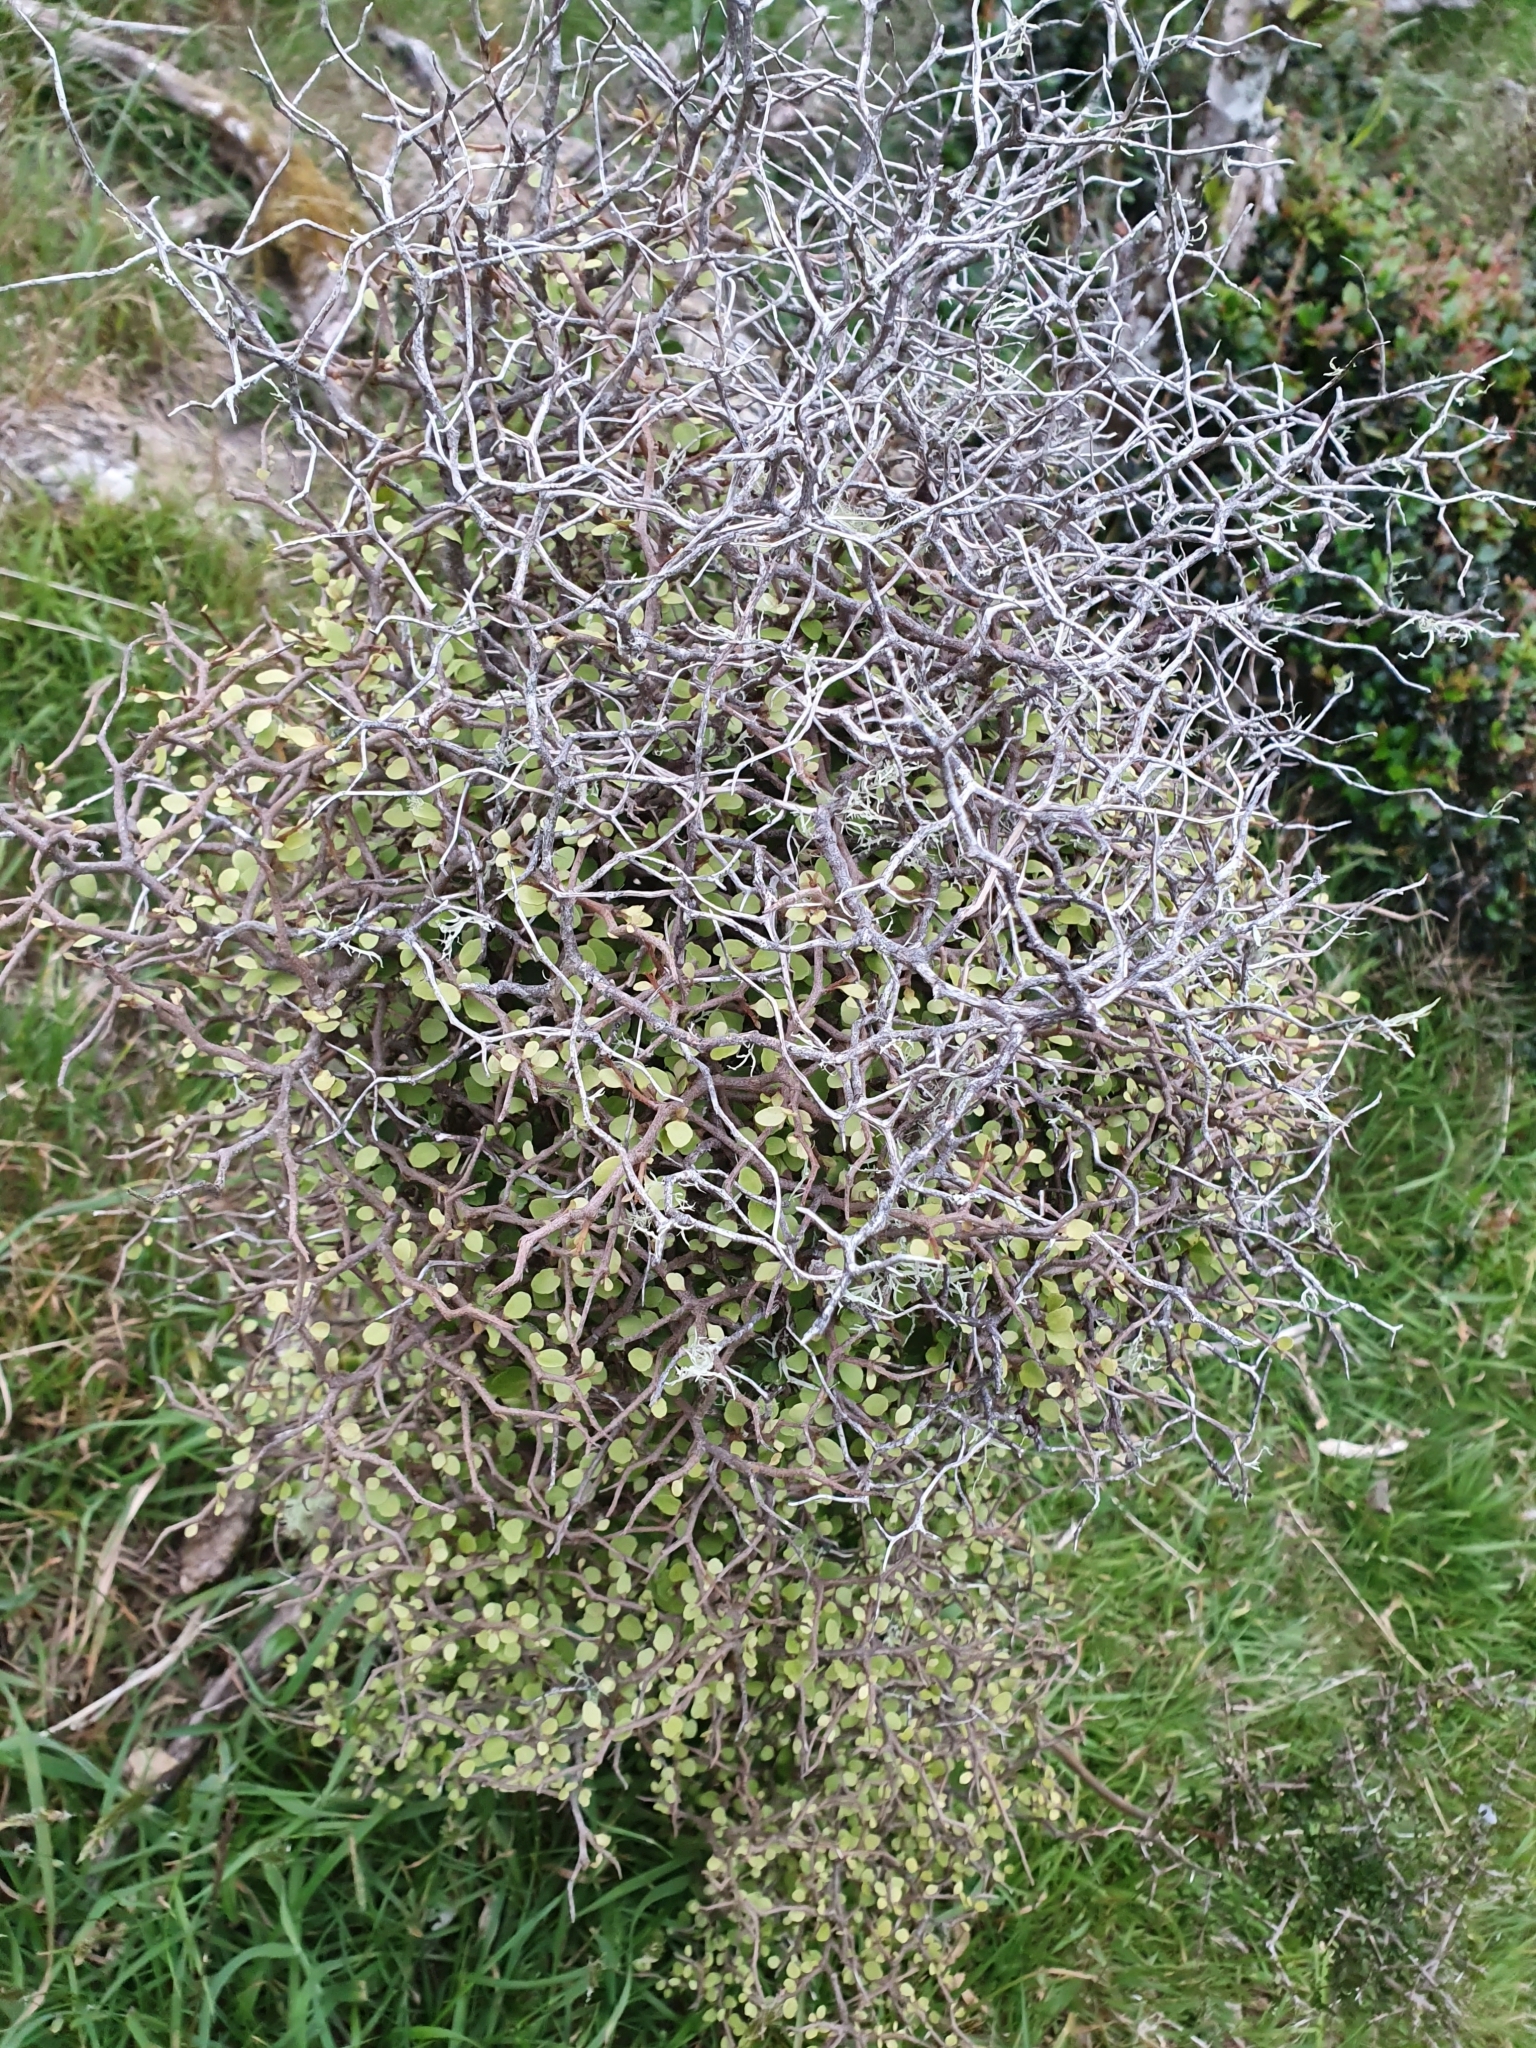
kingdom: Plantae
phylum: Tracheophyta
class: Magnoliopsida
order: Apiales
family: Araliaceae
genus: Raukaua
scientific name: Raukaua anomalus
